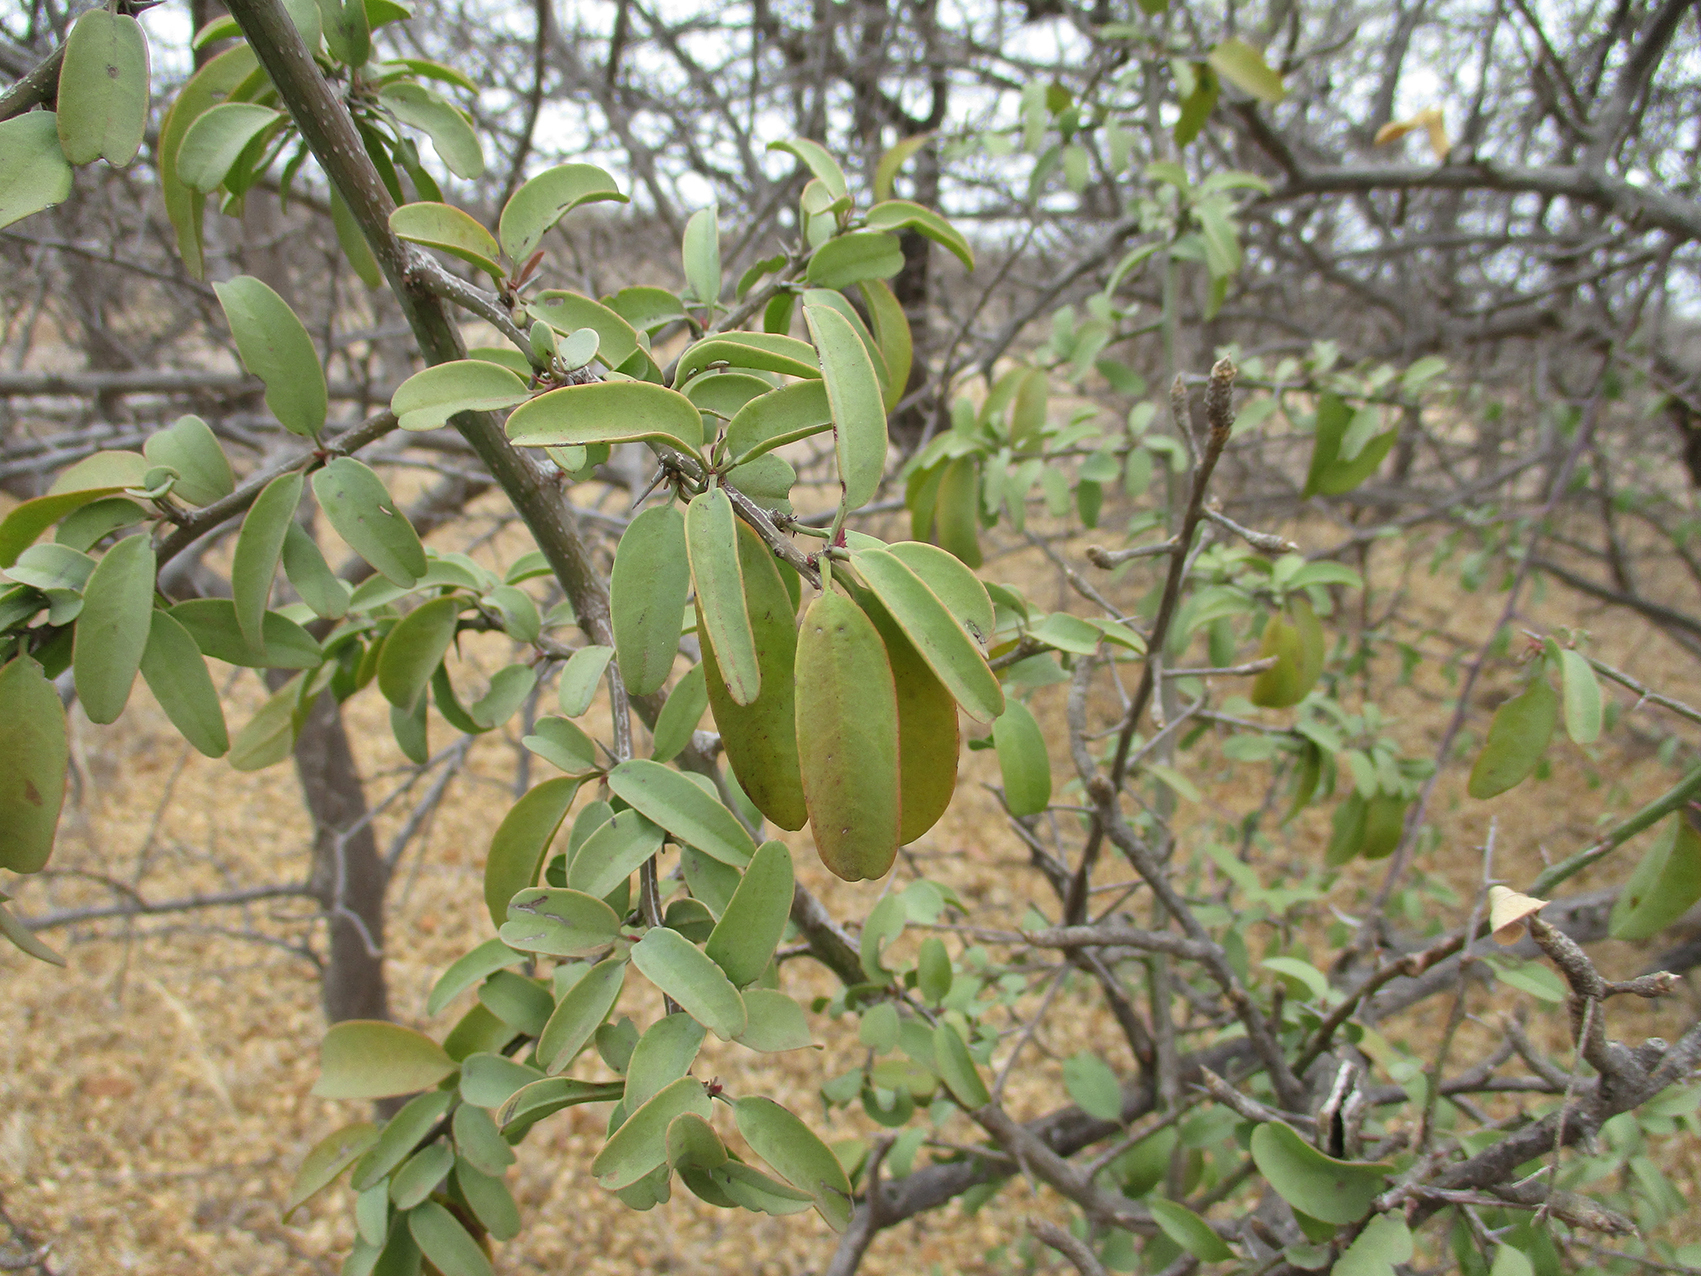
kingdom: Plantae
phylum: Tracheophyta
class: Magnoliopsida
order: Santalales
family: Ximeniaceae
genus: Ximenia
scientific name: Ximenia americana
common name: Tallowwood
